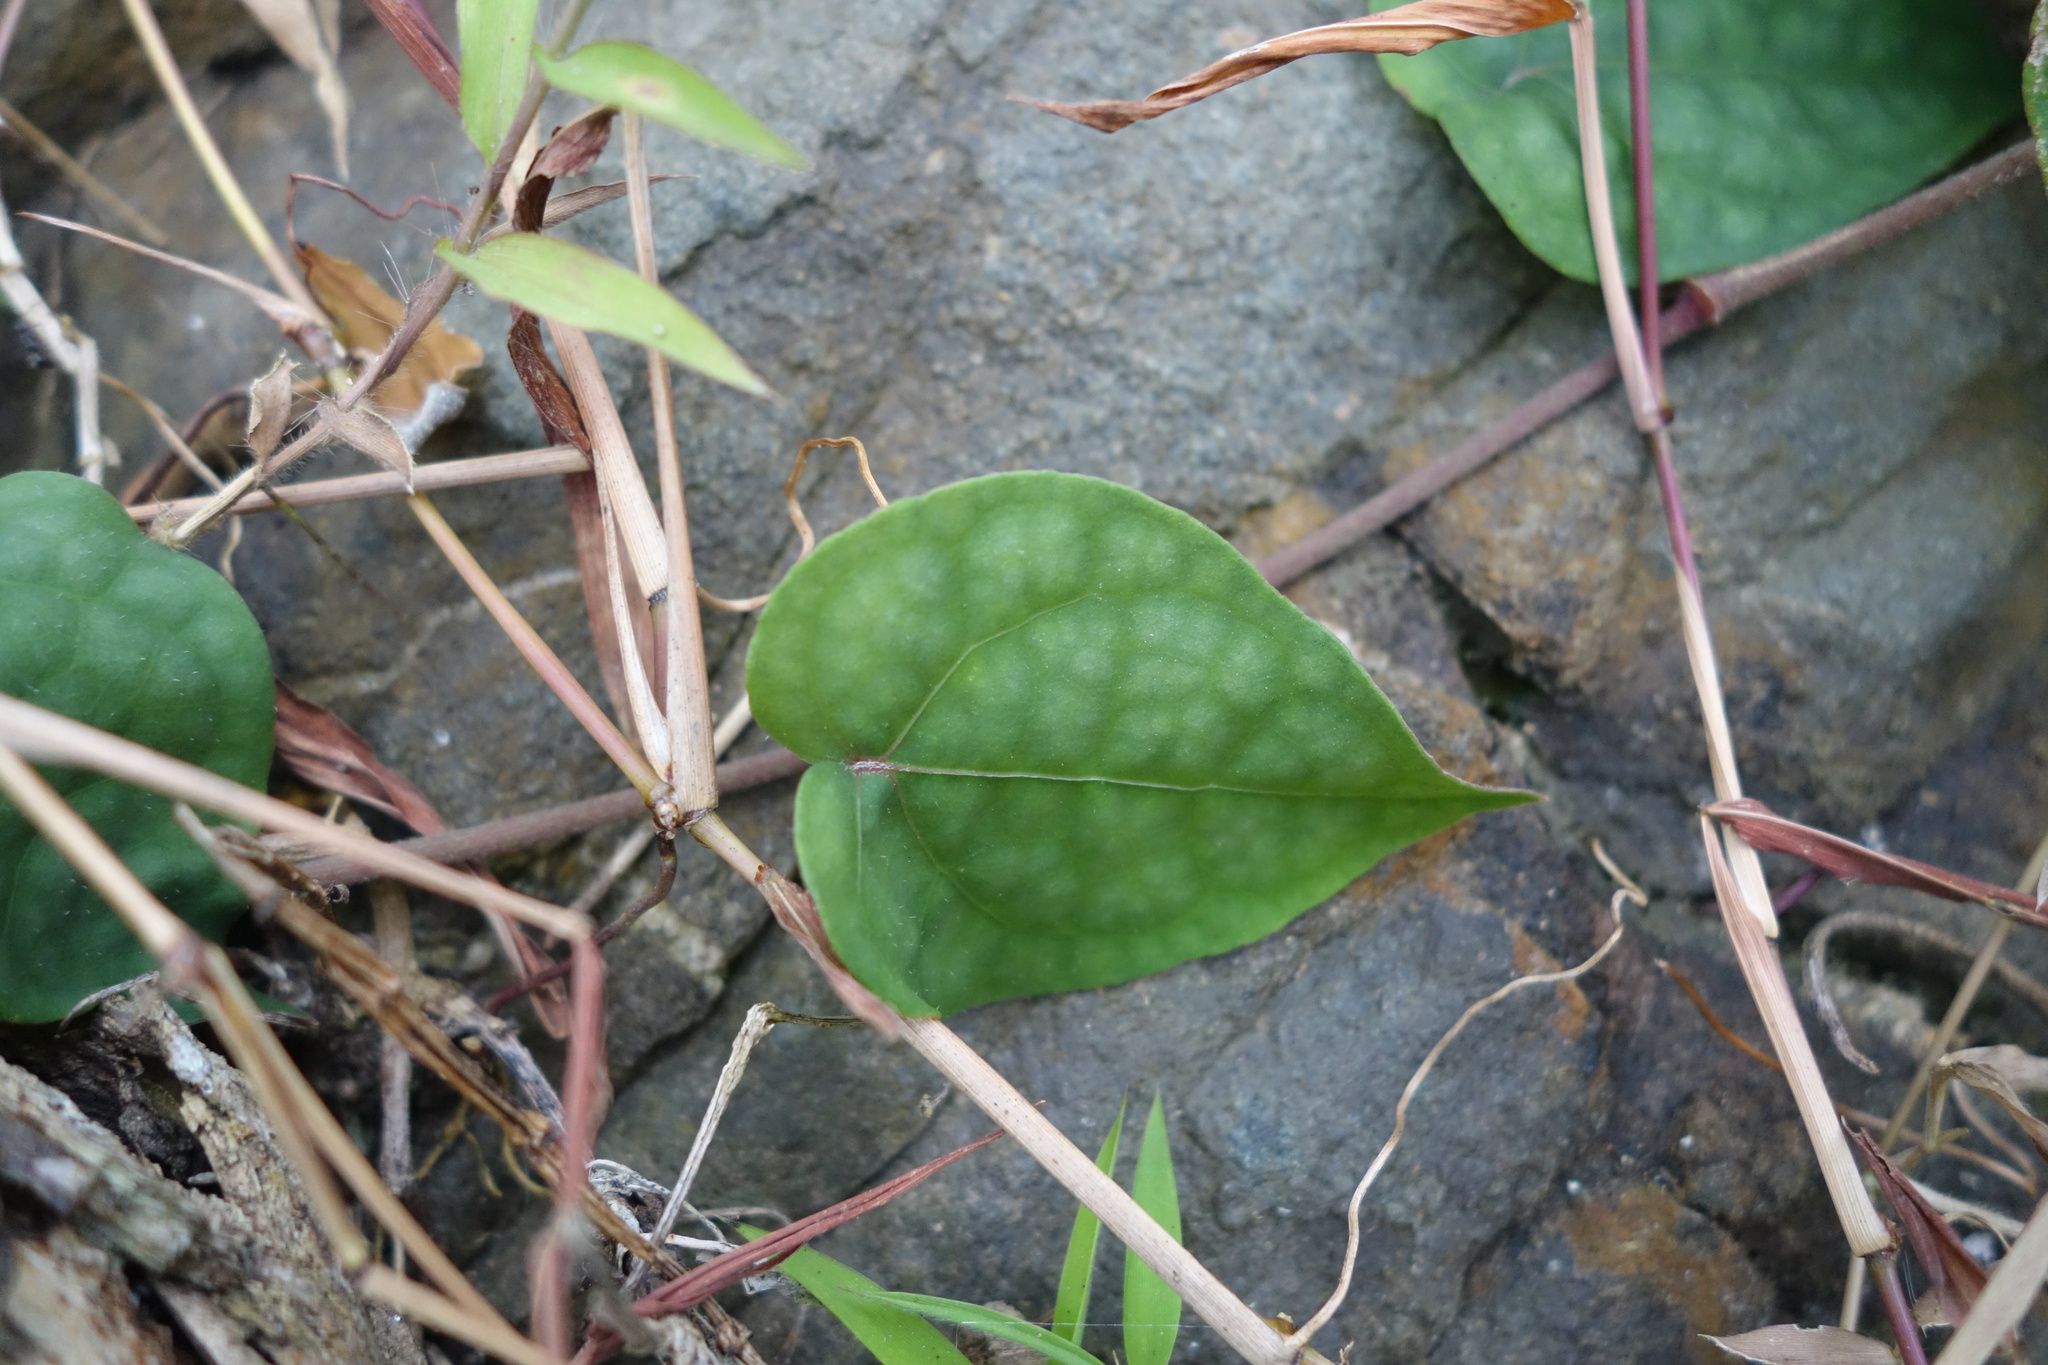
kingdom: Plantae
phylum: Tracheophyta
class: Magnoliopsida
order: Piperales
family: Piperaceae
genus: Piper
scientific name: Piper kadsura
